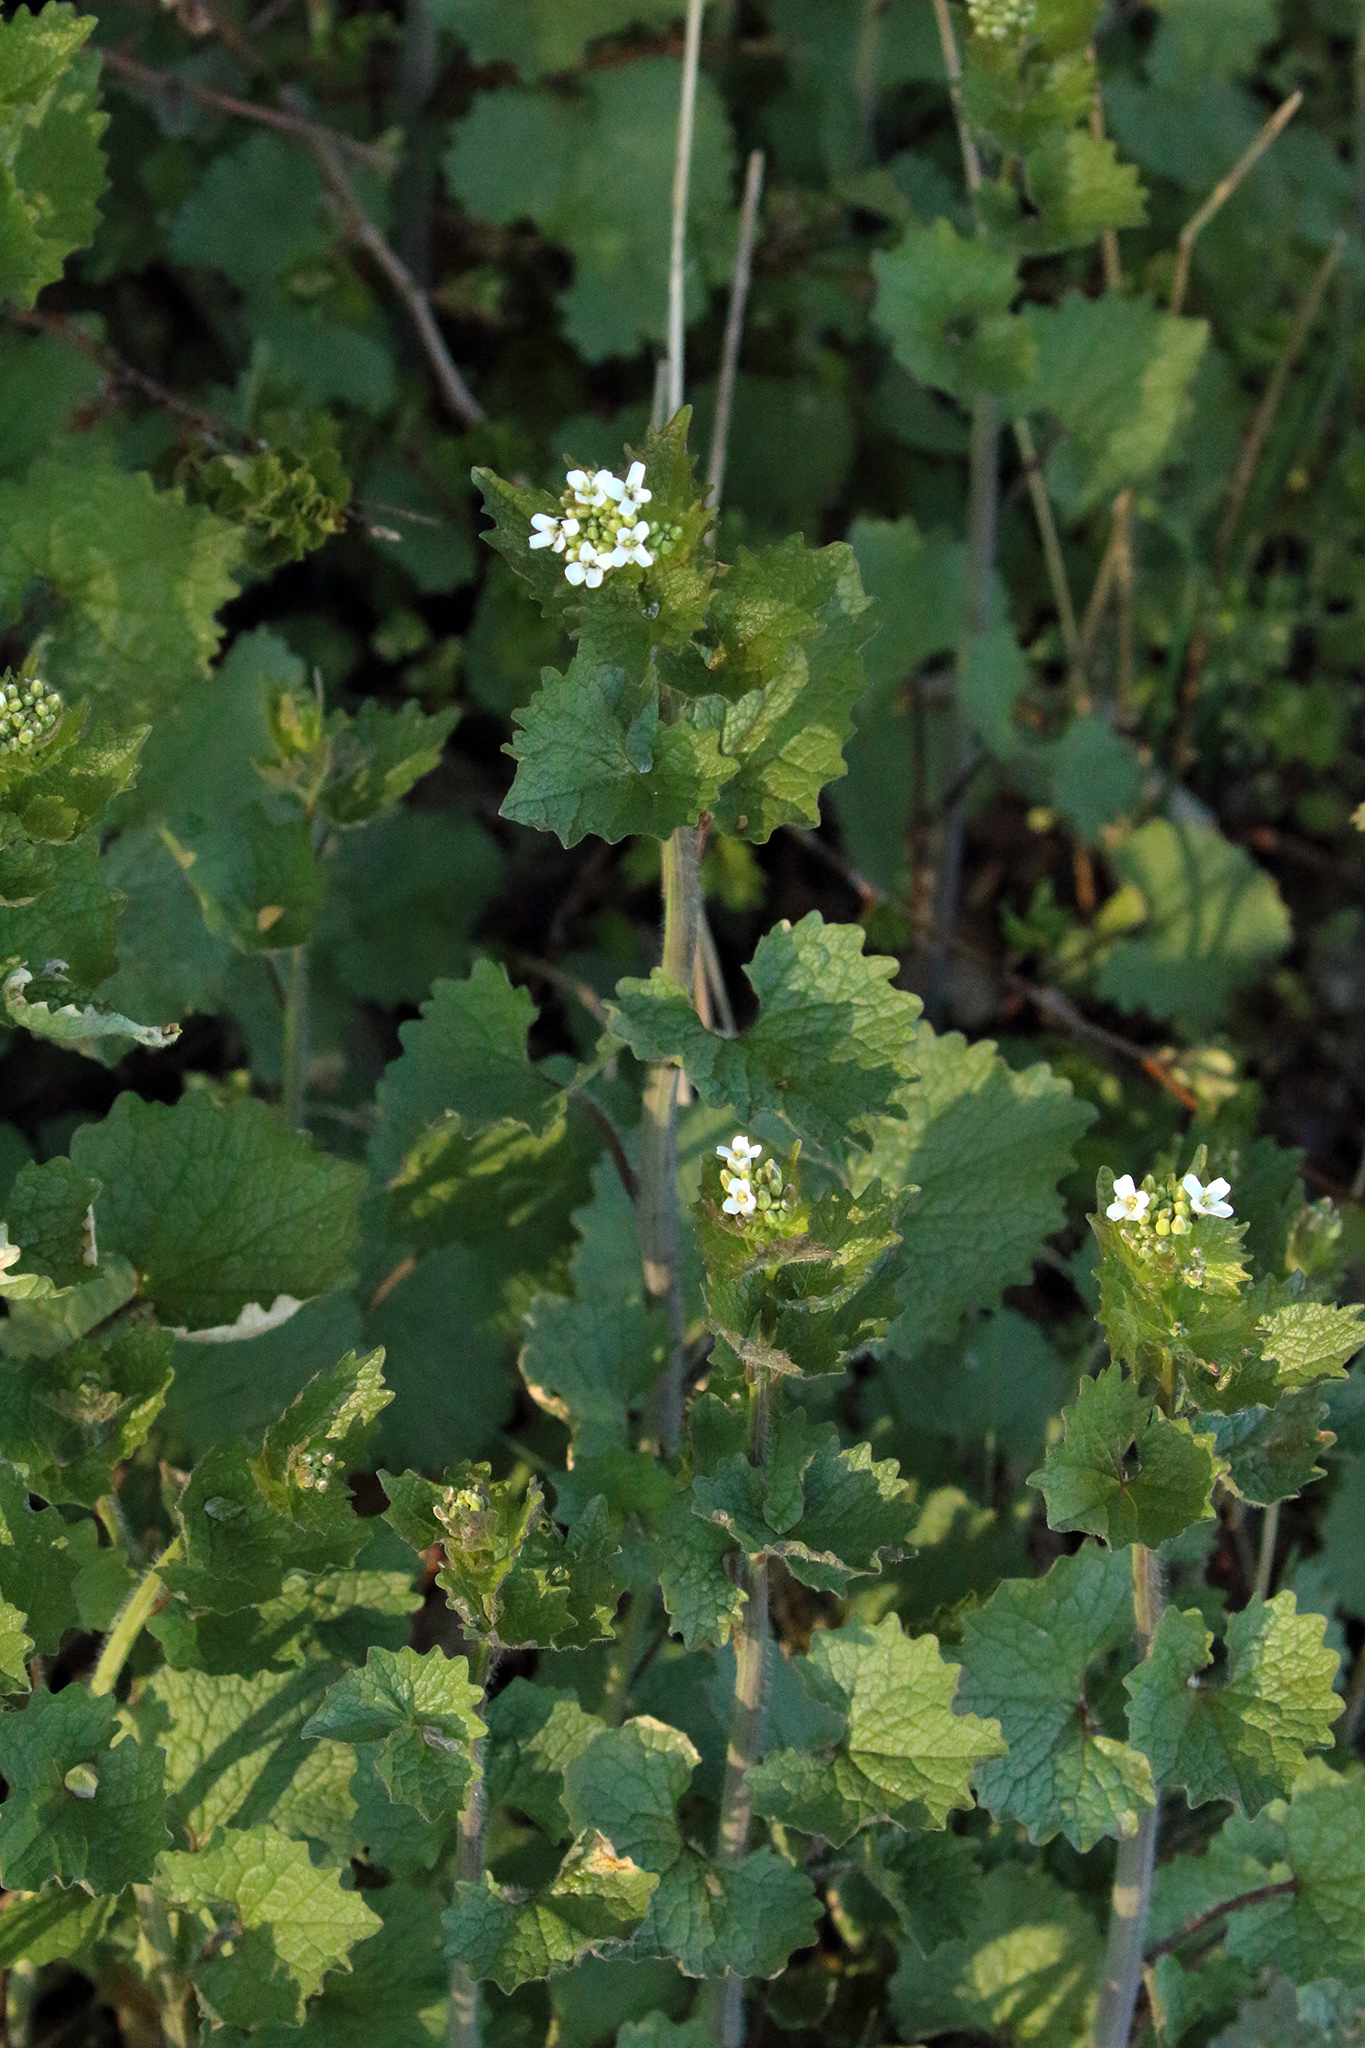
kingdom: Plantae
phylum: Tracheophyta
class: Magnoliopsida
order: Brassicales
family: Brassicaceae
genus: Alliaria
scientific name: Alliaria petiolata
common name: Garlic mustard
